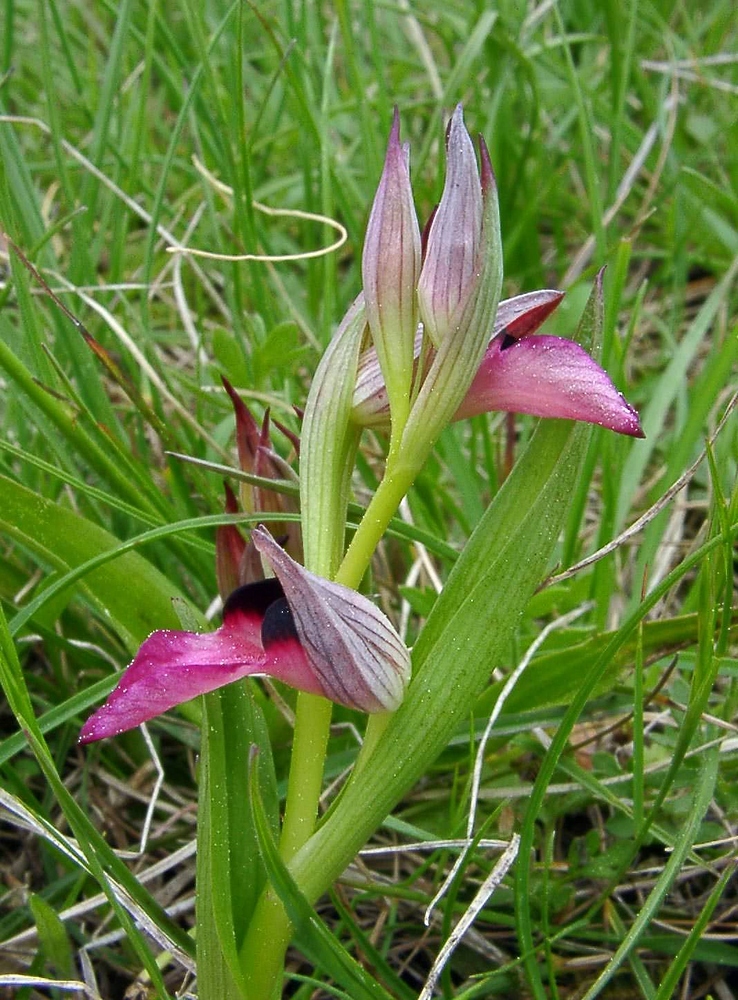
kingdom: Plantae
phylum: Tracheophyta
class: Liliopsida
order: Asparagales
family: Orchidaceae
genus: Serapias
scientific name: Serapias lingua
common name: Tongue-orchid
